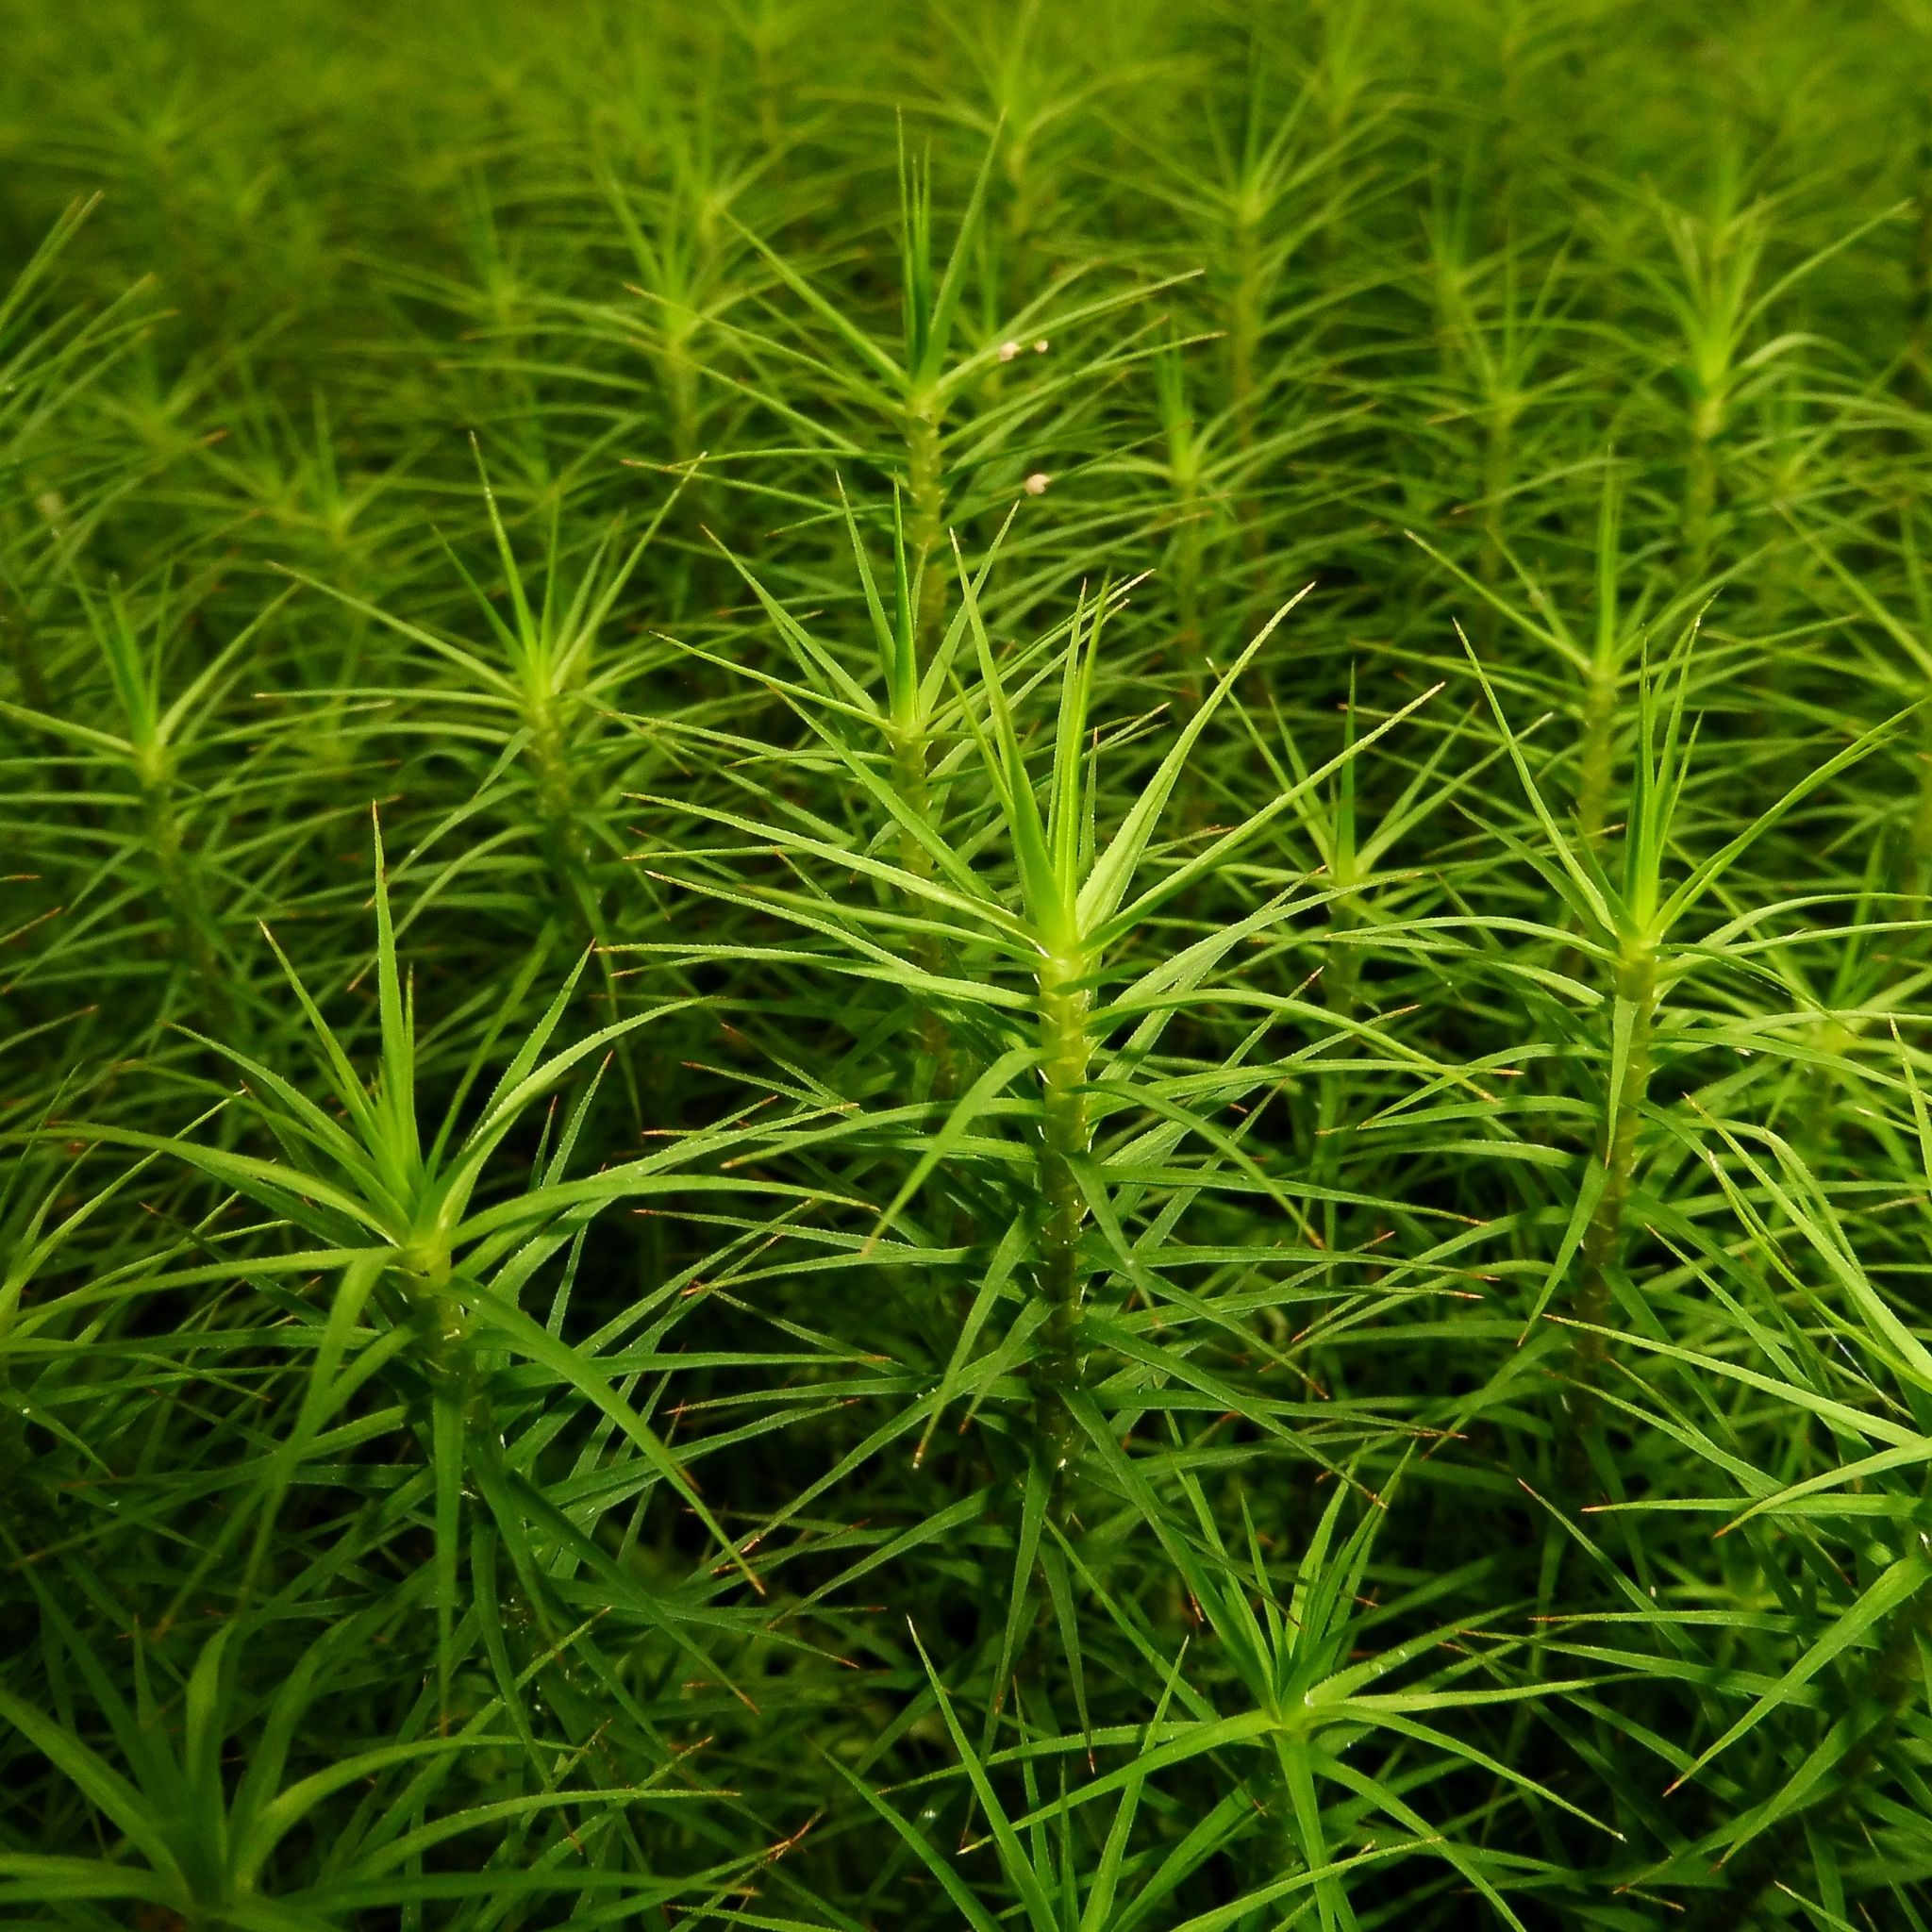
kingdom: Plantae
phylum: Bryophyta
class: Polytrichopsida
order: Polytrichales
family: Polytrichaceae
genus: Polytrichum
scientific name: Polytrichum commune
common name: Common haircap
